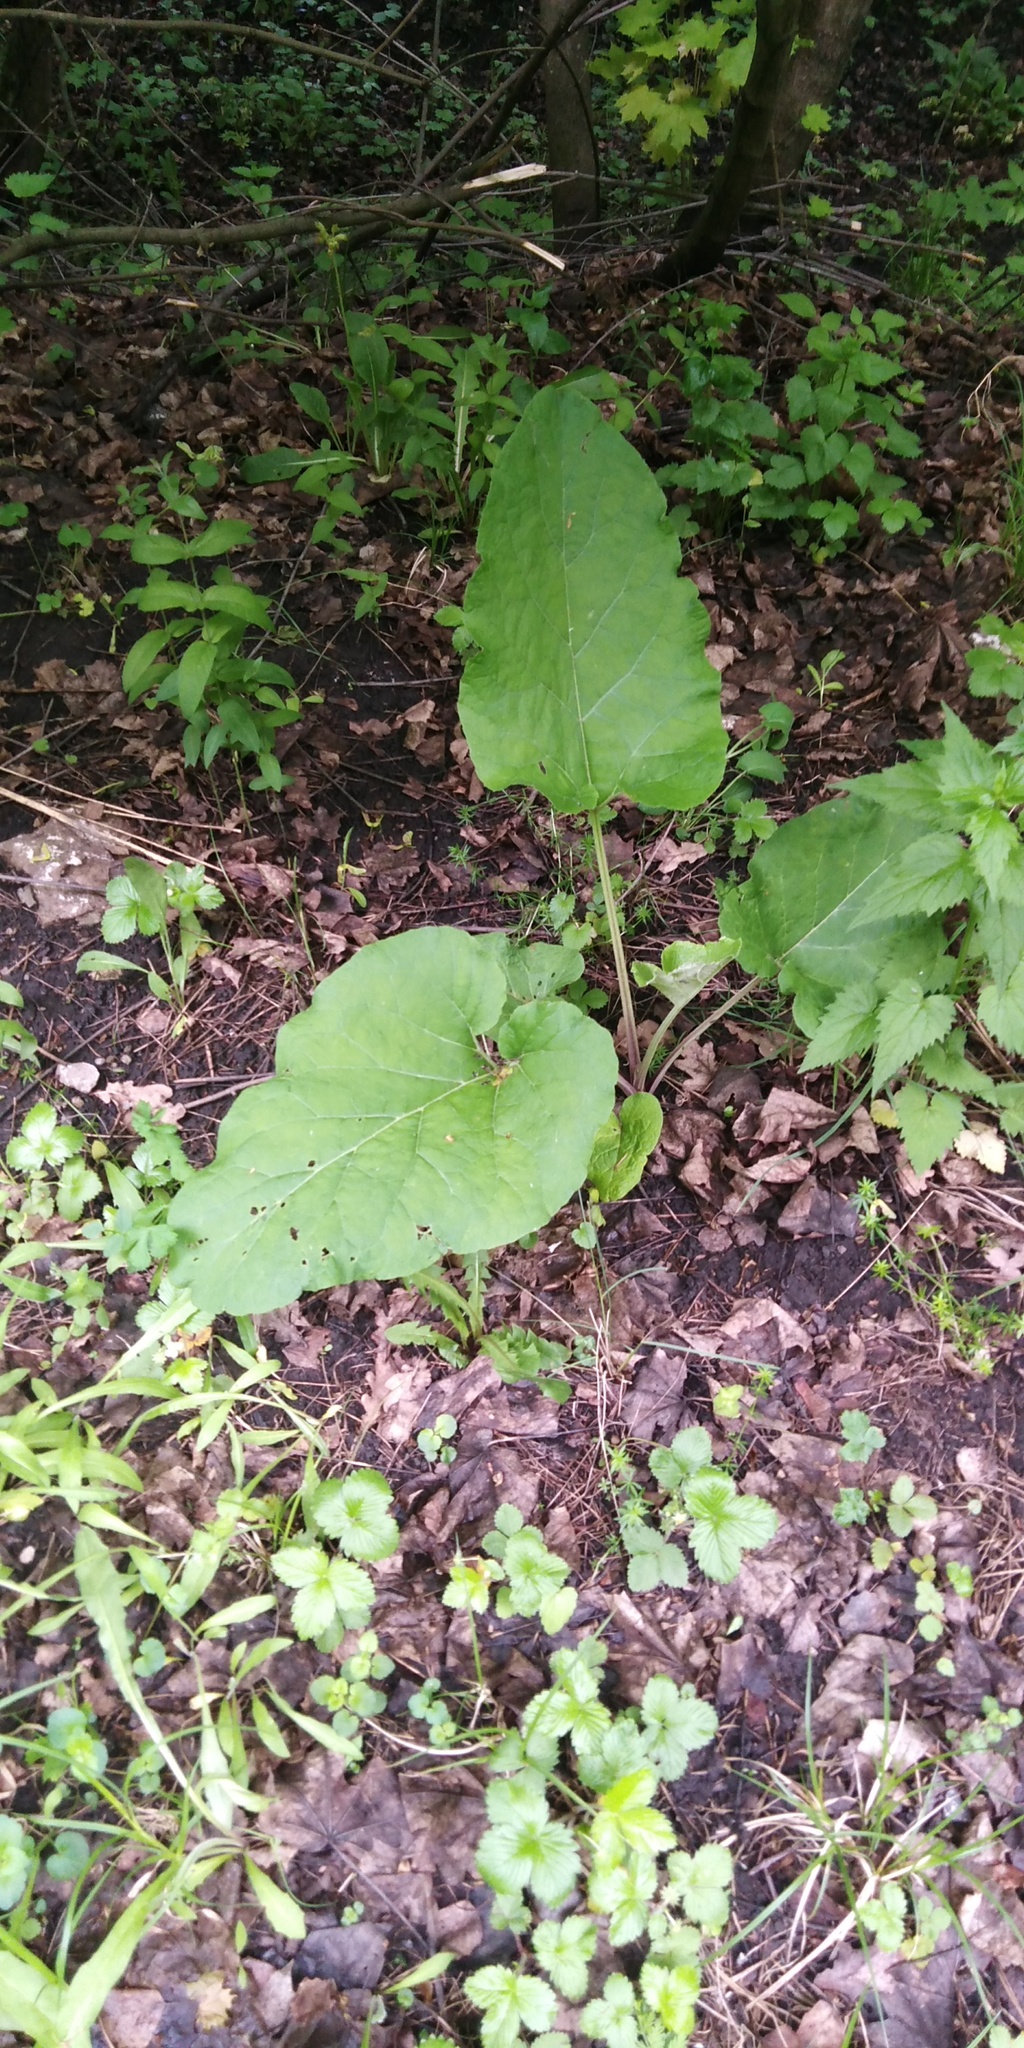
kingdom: Plantae
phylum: Tracheophyta
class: Magnoliopsida
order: Asterales
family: Asteraceae
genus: Arctium
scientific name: Arctium
